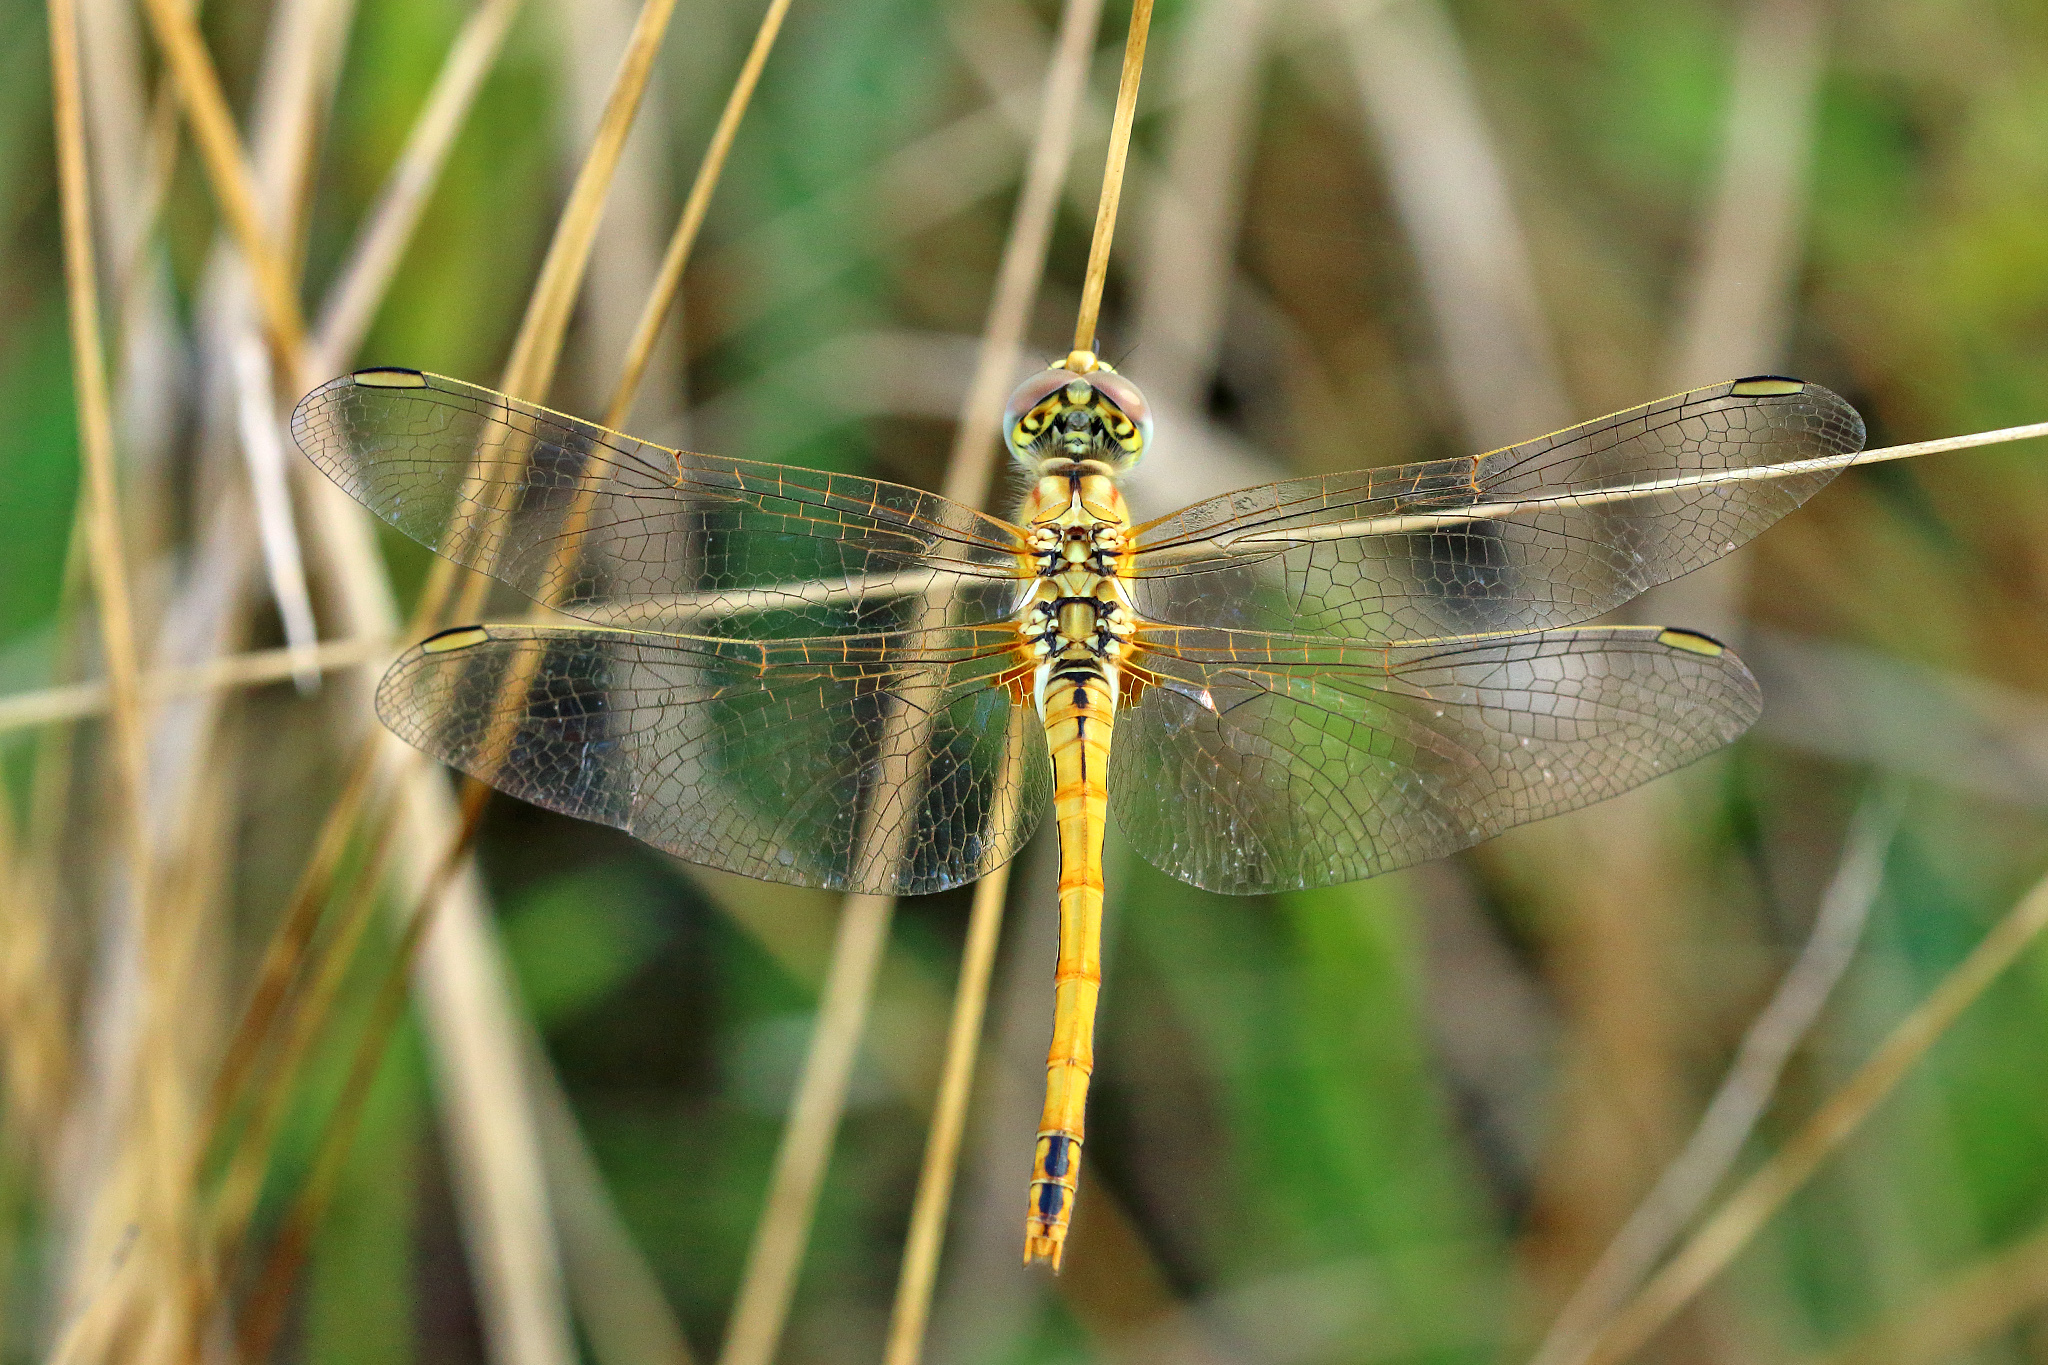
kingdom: Animalia
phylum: Arthropoda
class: Insecta
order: Odonata
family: Libellulidae
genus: Sympetrum
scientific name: Sympetrum fonscolombii
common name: Red-veined darter
